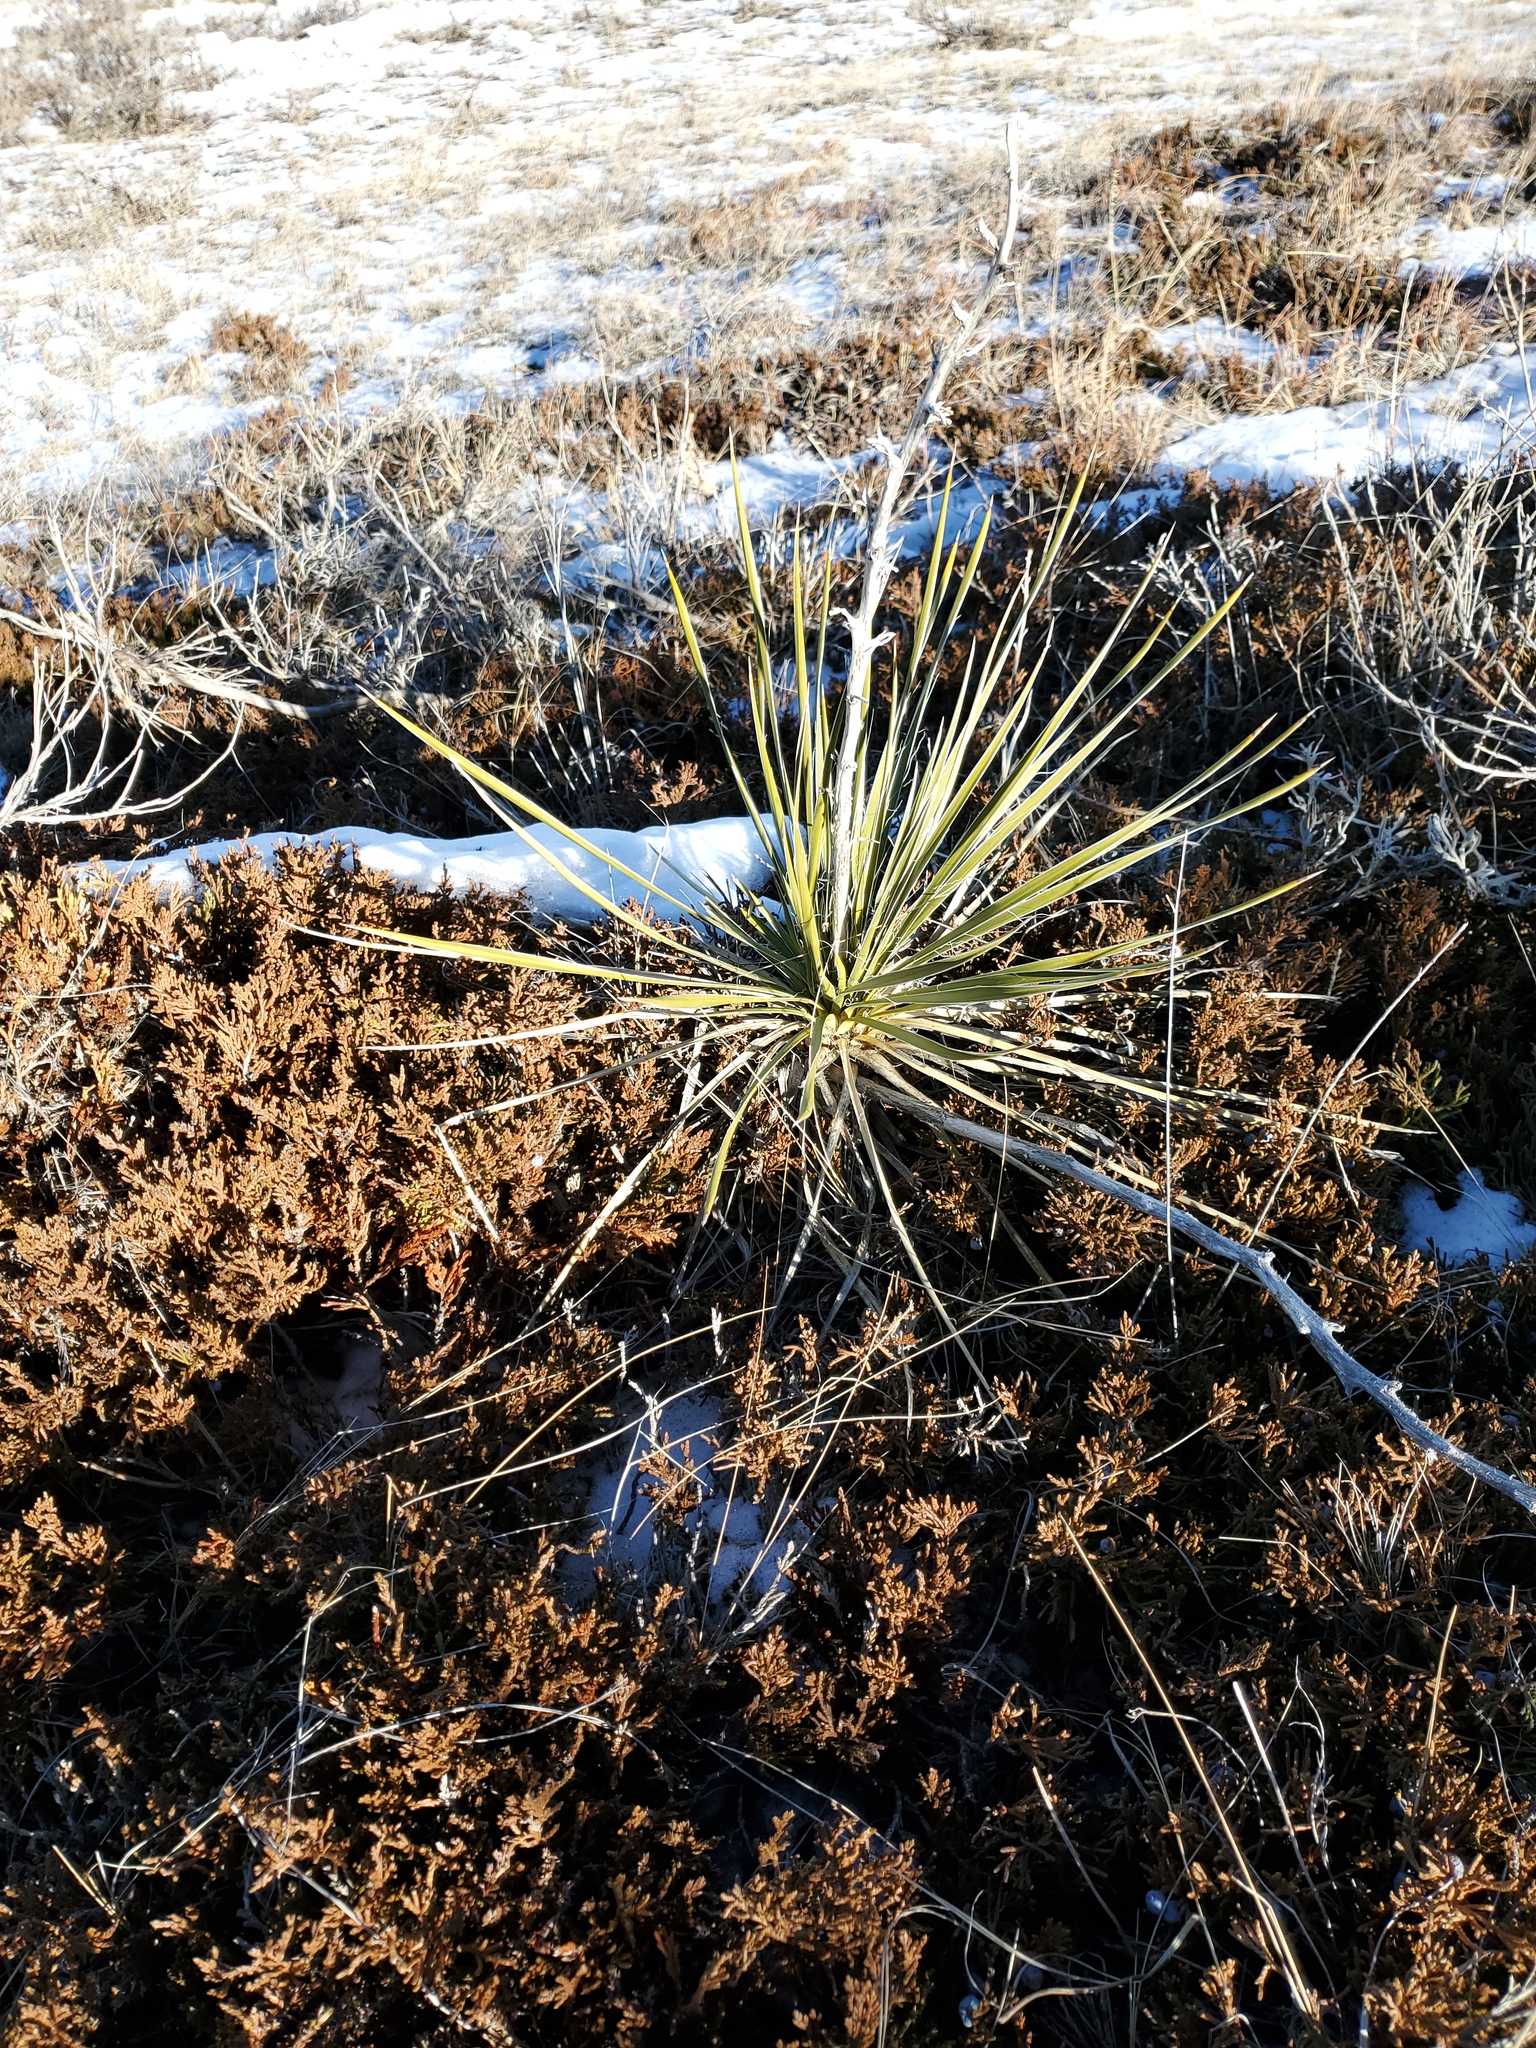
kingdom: Plantae
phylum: Tracheophyta
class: Liliopsida
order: Asparagales
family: Asparagaceae
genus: Yucca
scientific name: Yucca glauca
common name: Great plains yucca
